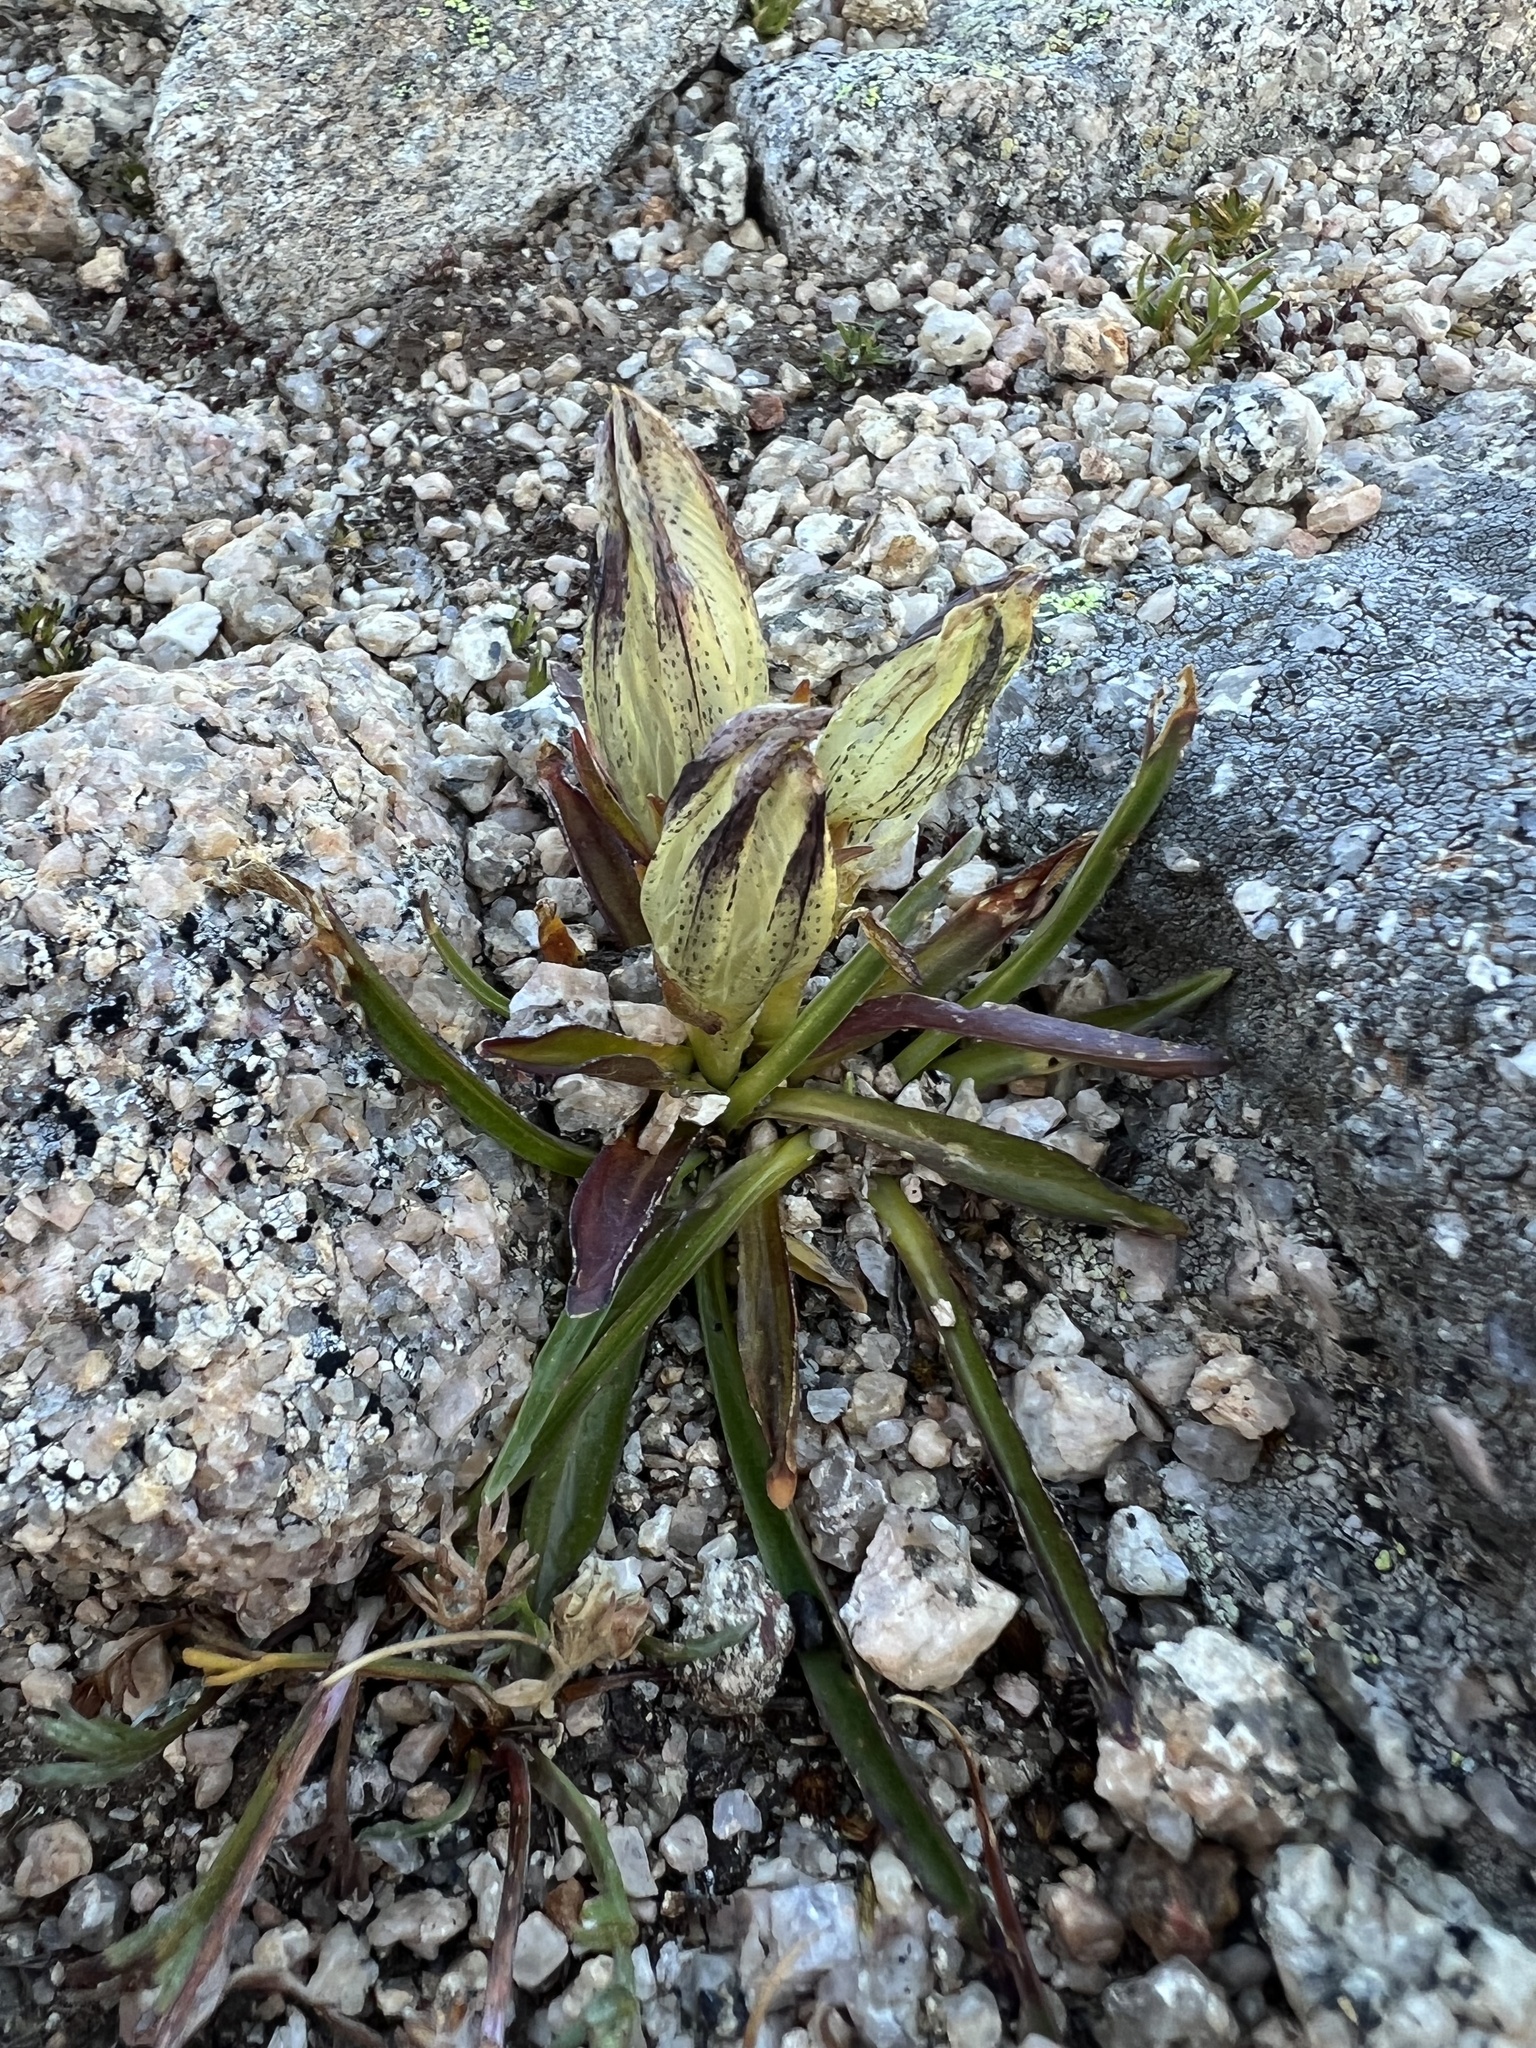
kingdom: Plantae
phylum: Tracheophyta
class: Magnoliopsida
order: Gentianales
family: Gentianaceae
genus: Gentiana
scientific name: Gentiana algida
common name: Arctic gentian
